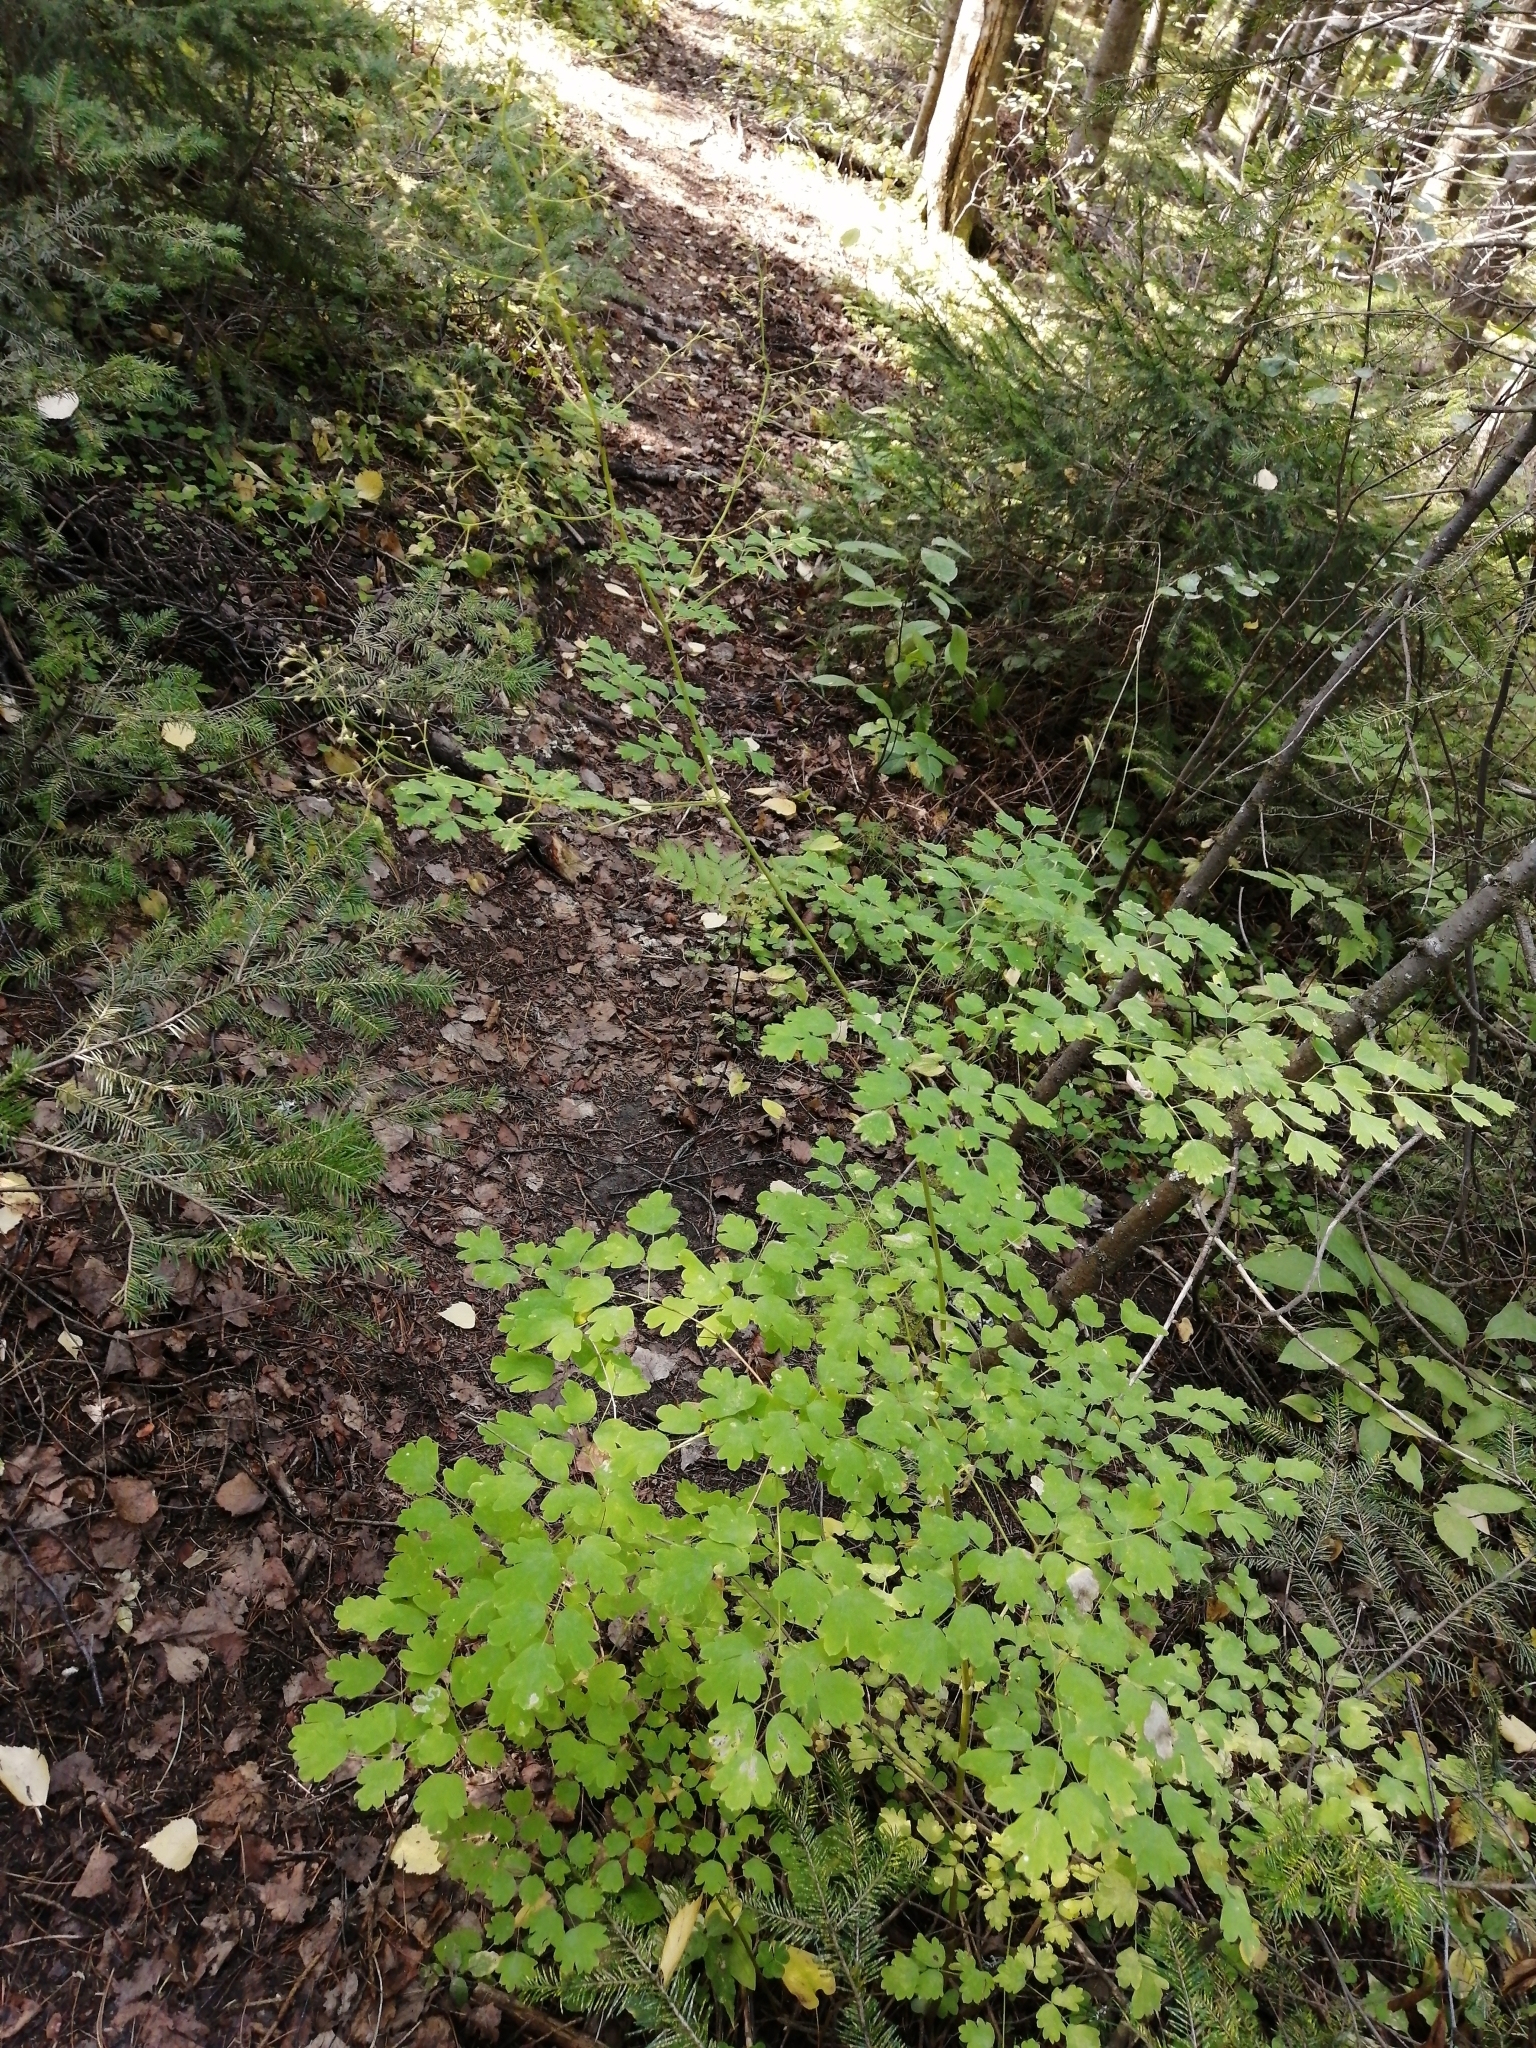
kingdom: Plantae
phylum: Tracheophyta
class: Magnoliopsida
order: Ranunculales
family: Ranunculaceae
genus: Thalictrum
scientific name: Thalictrum minus
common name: Lesser meadow-rue
